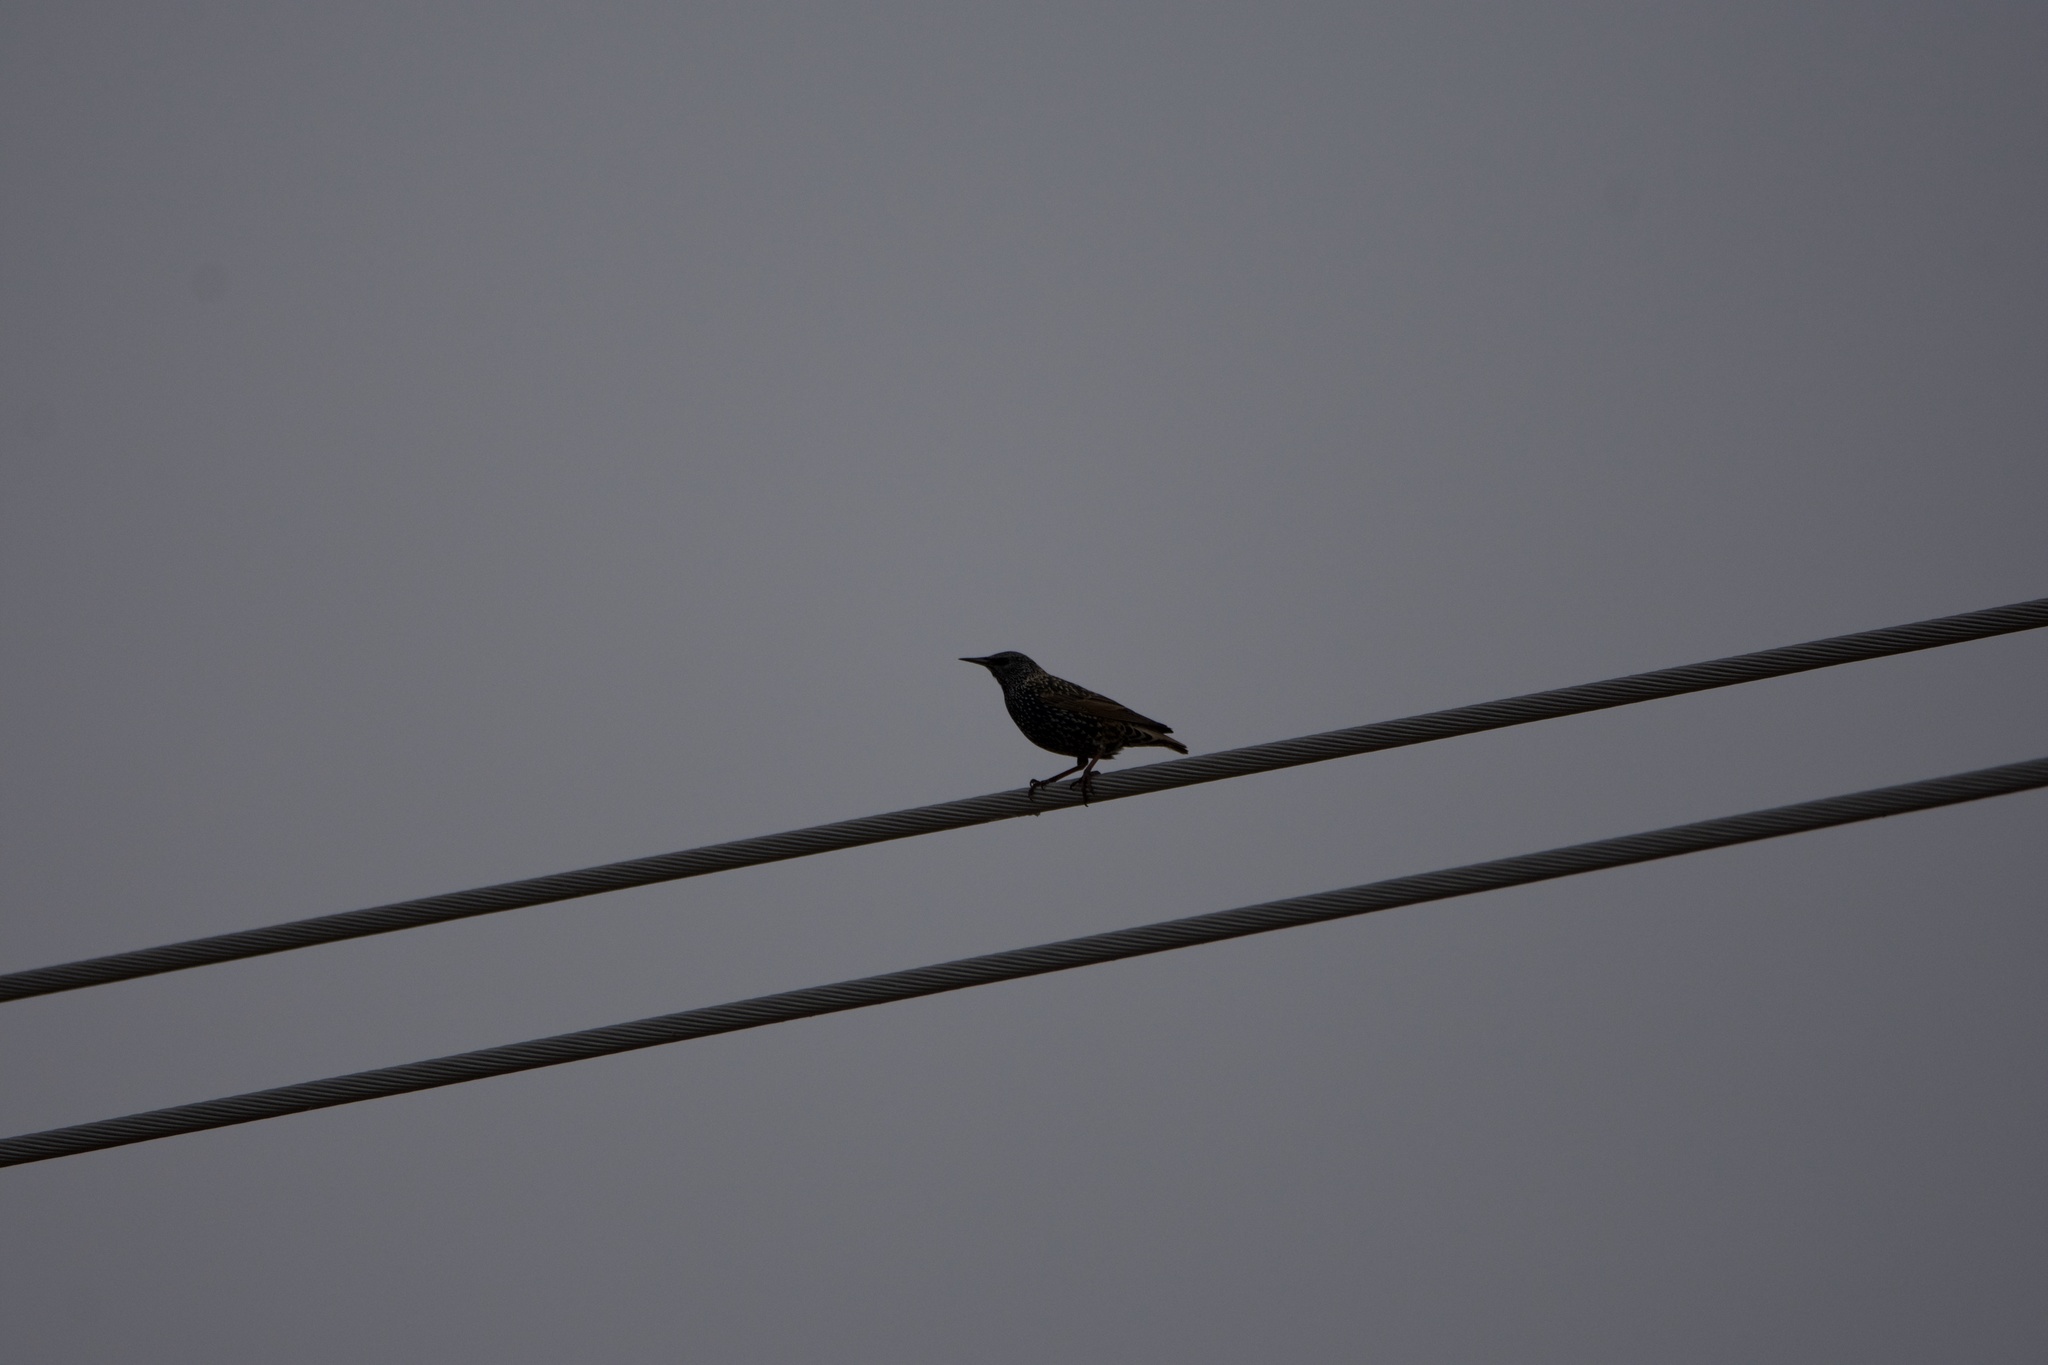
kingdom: Animalia
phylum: Chordata
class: Aves
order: Passeriformes
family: Sturnidae
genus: Sturnus
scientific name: Sturnus vulgaris
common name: Common starling
